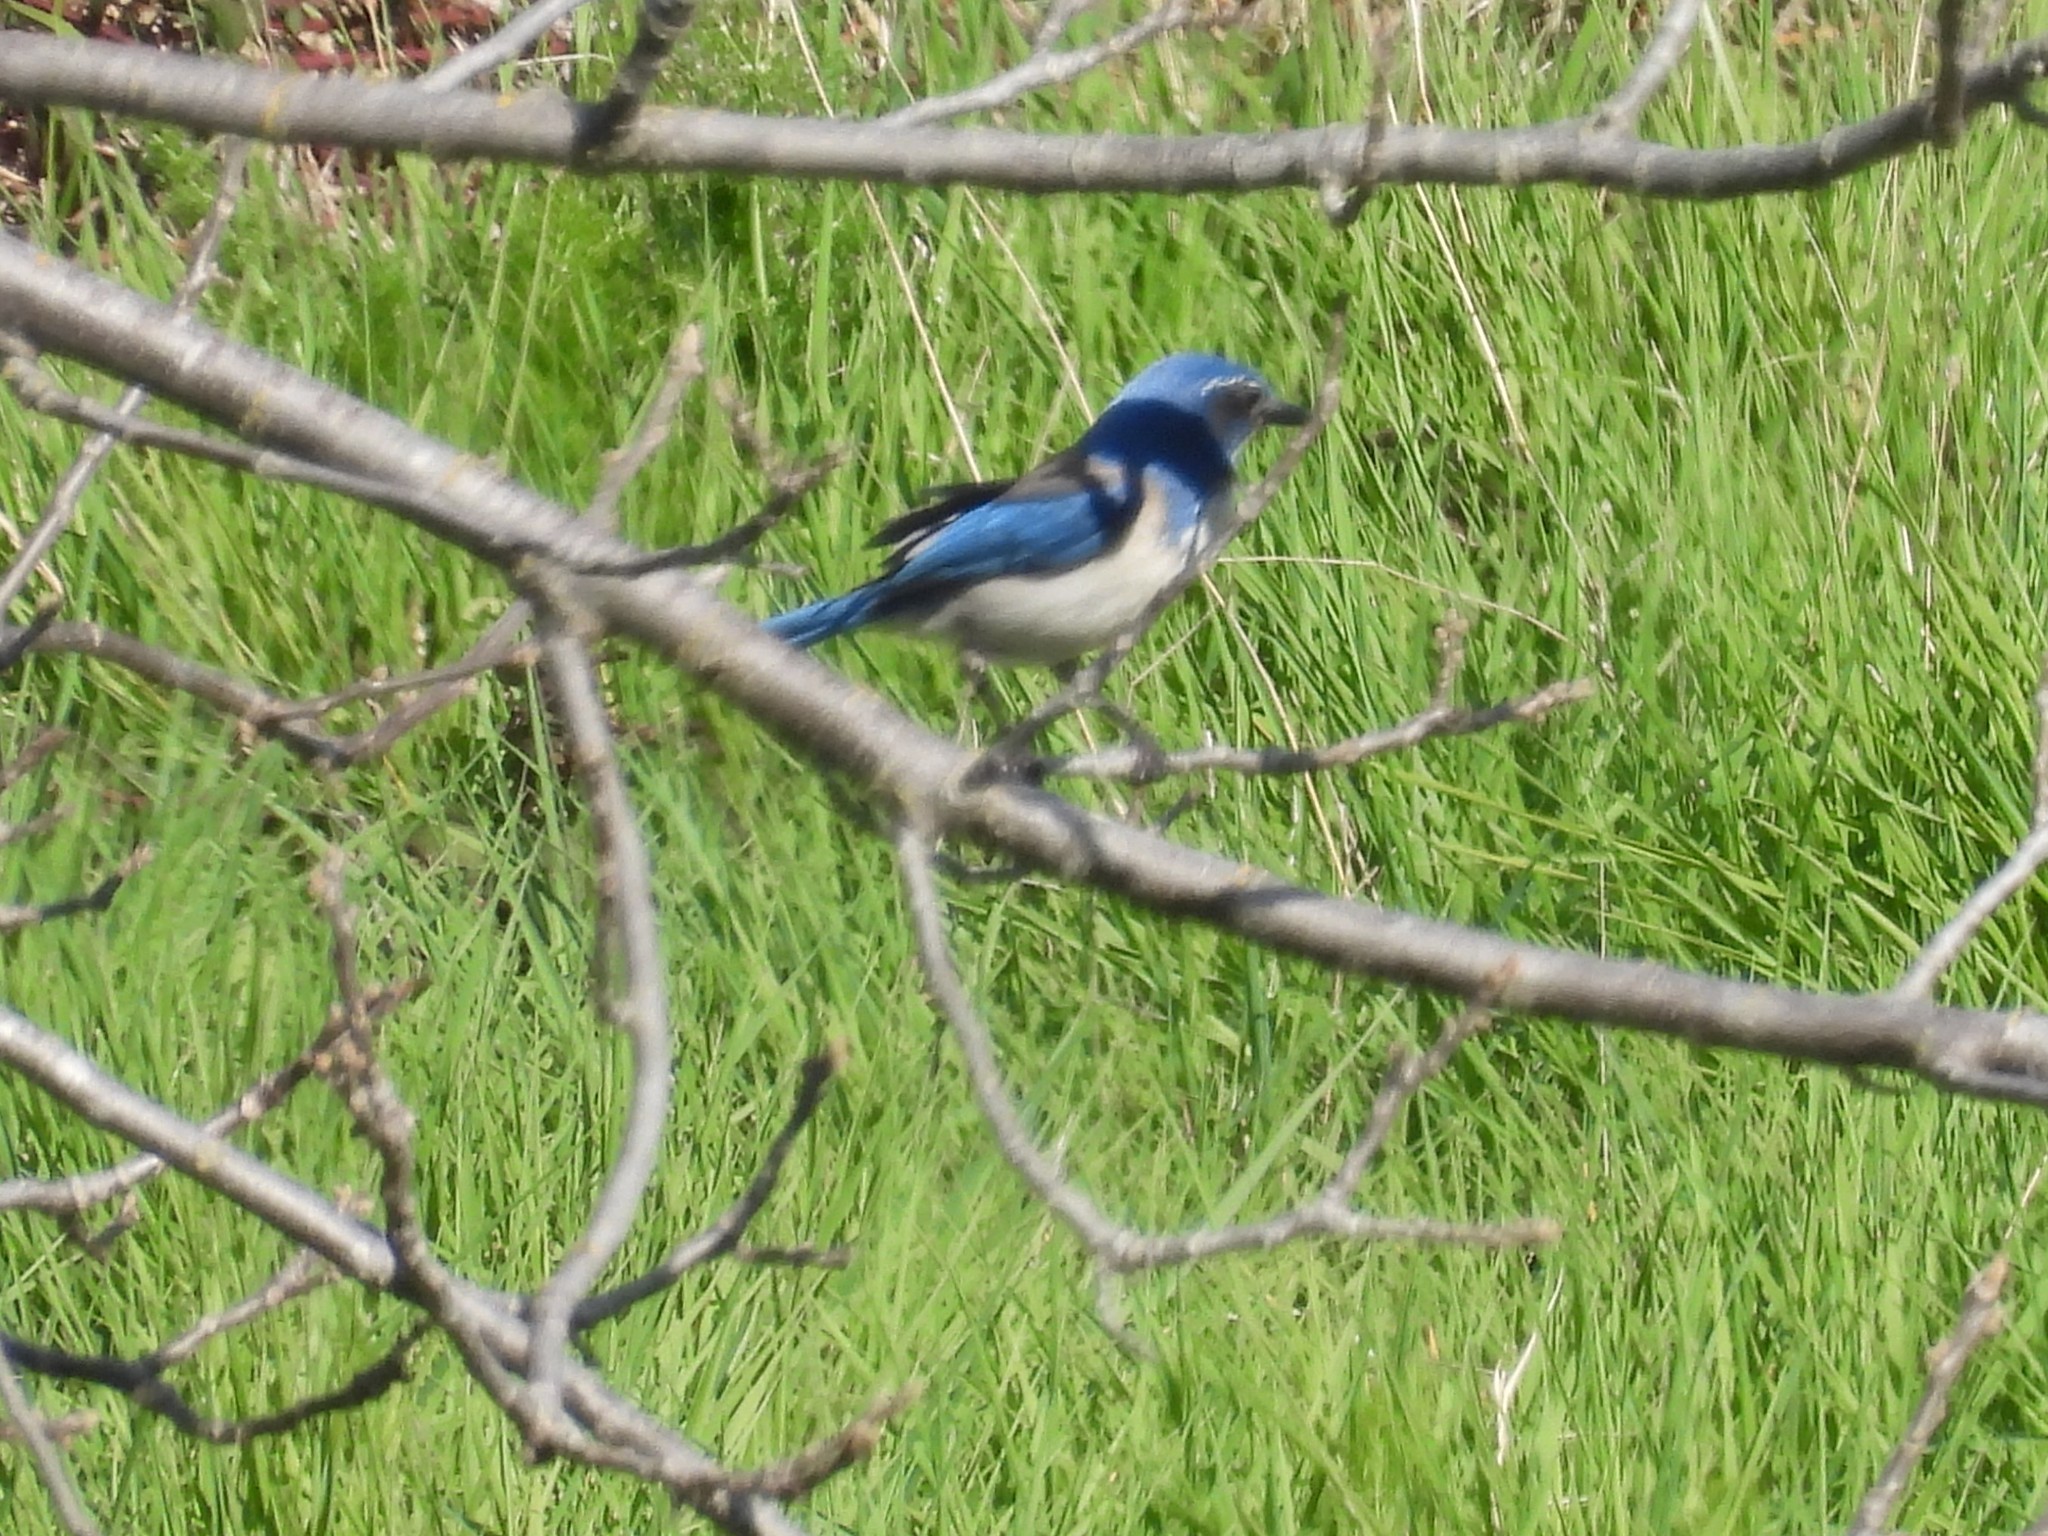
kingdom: Animalia
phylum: Chordata
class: Aves
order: Passeriformes
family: Corvidae
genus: Aphelocoma
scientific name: Aphelocoma californica
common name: California scrub-jay
